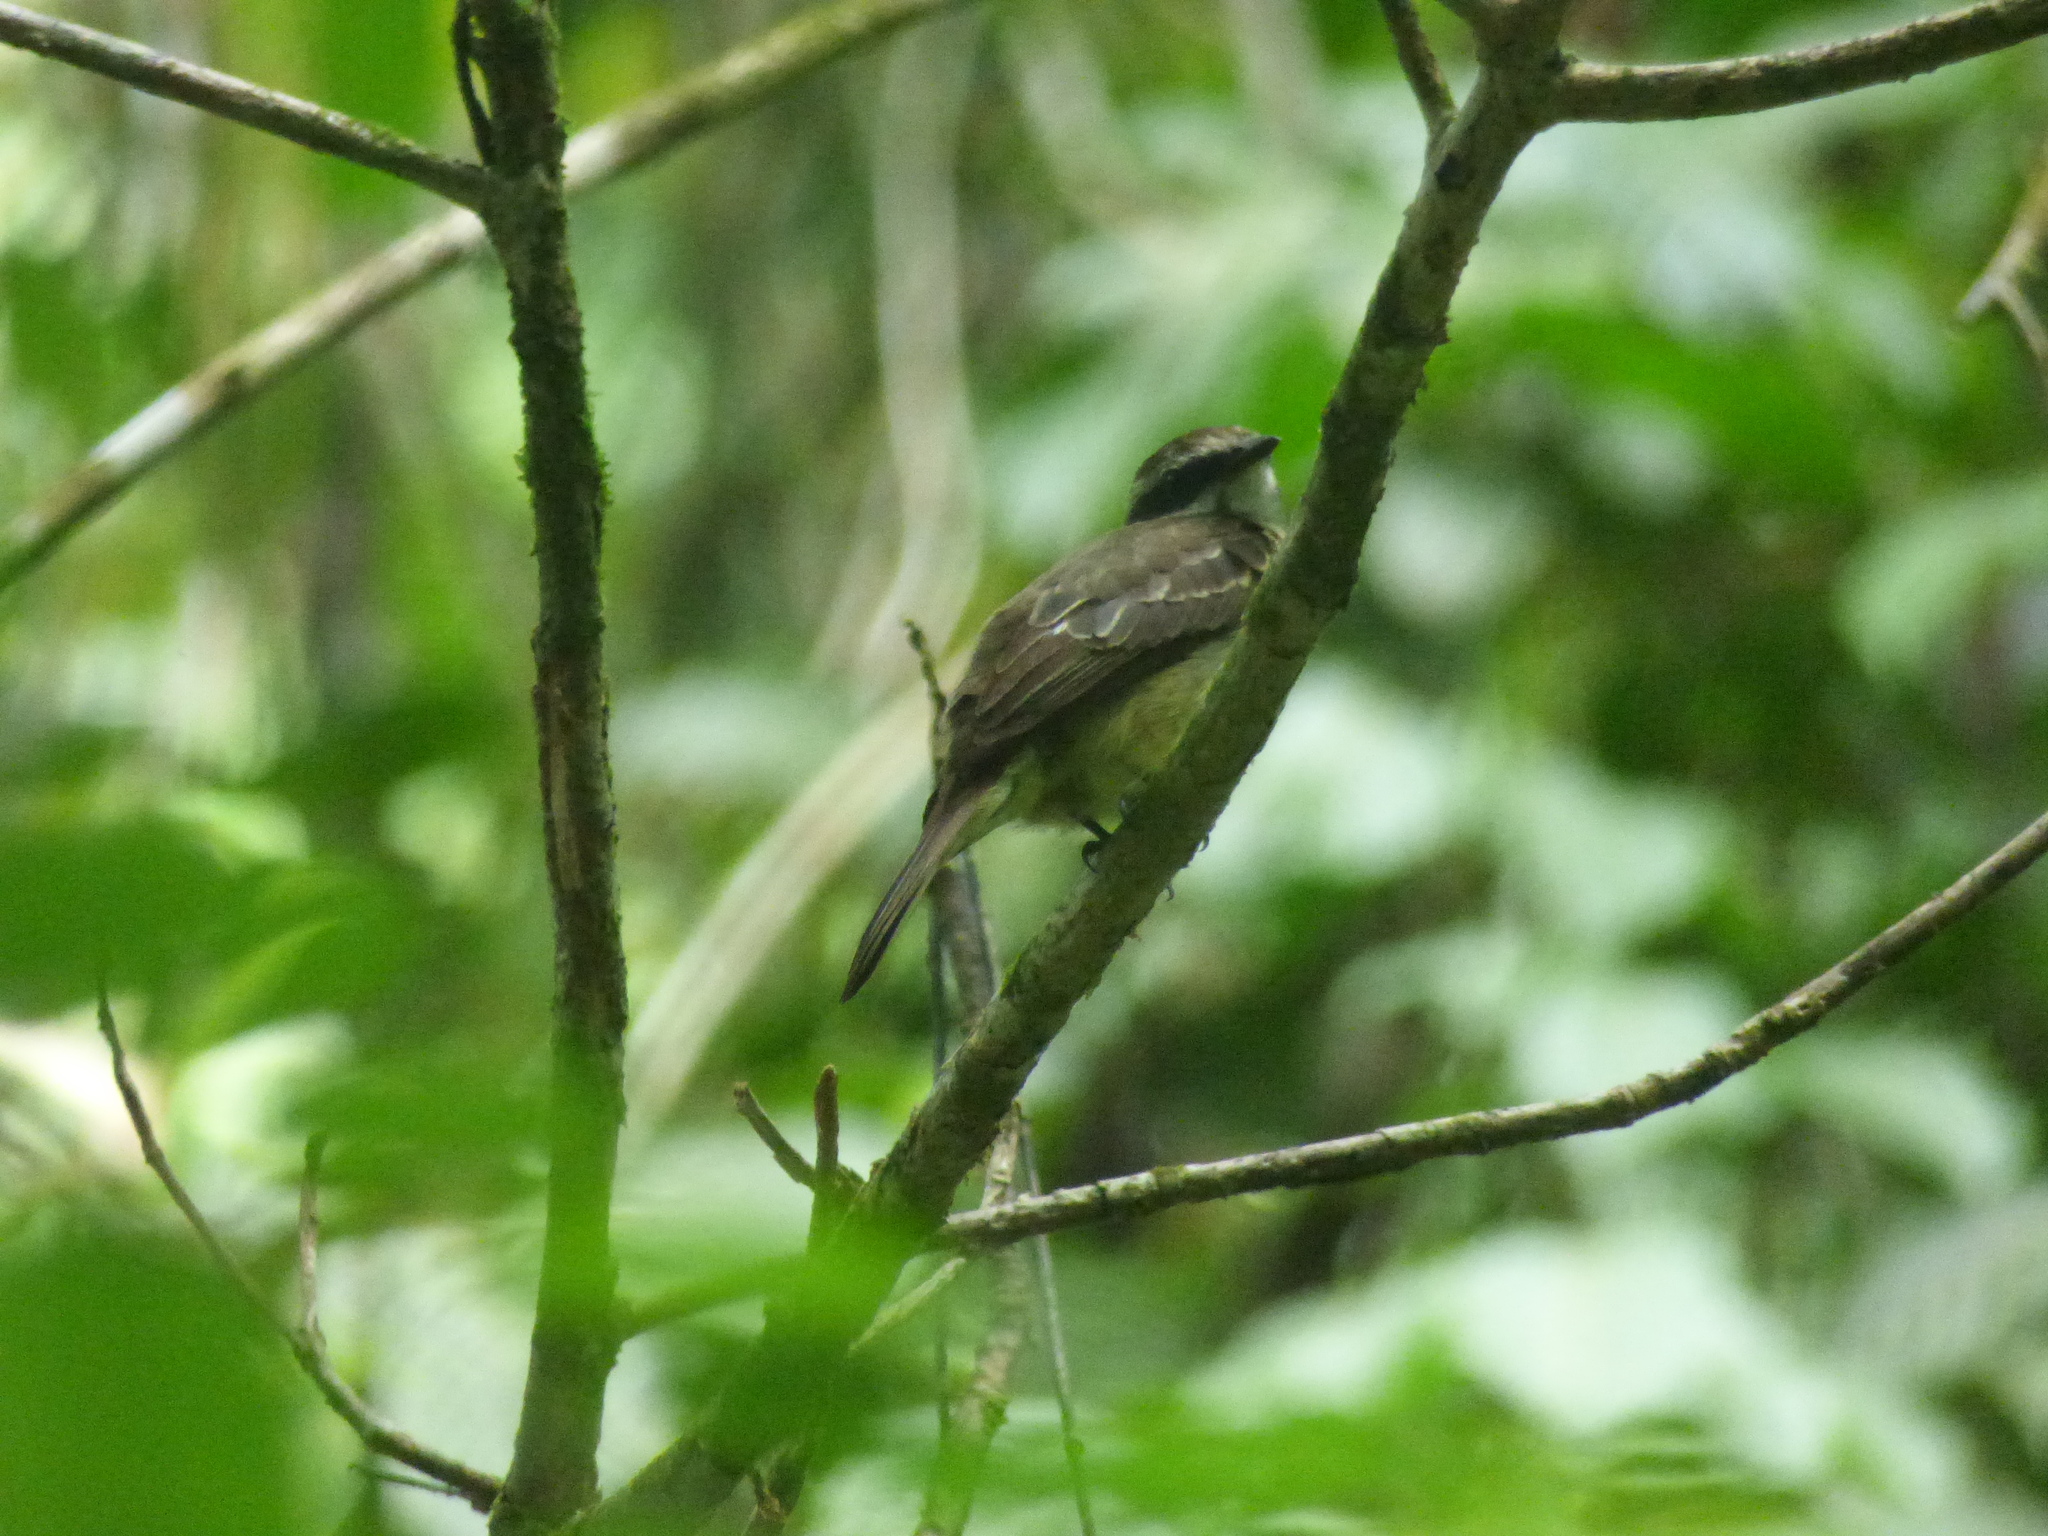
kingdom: Animalia
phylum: Chordata
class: Aves
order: Passeriformes
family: Tyrannidae
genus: Legatus
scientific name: Legatus leucophaius
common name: Piratic flycatcher
